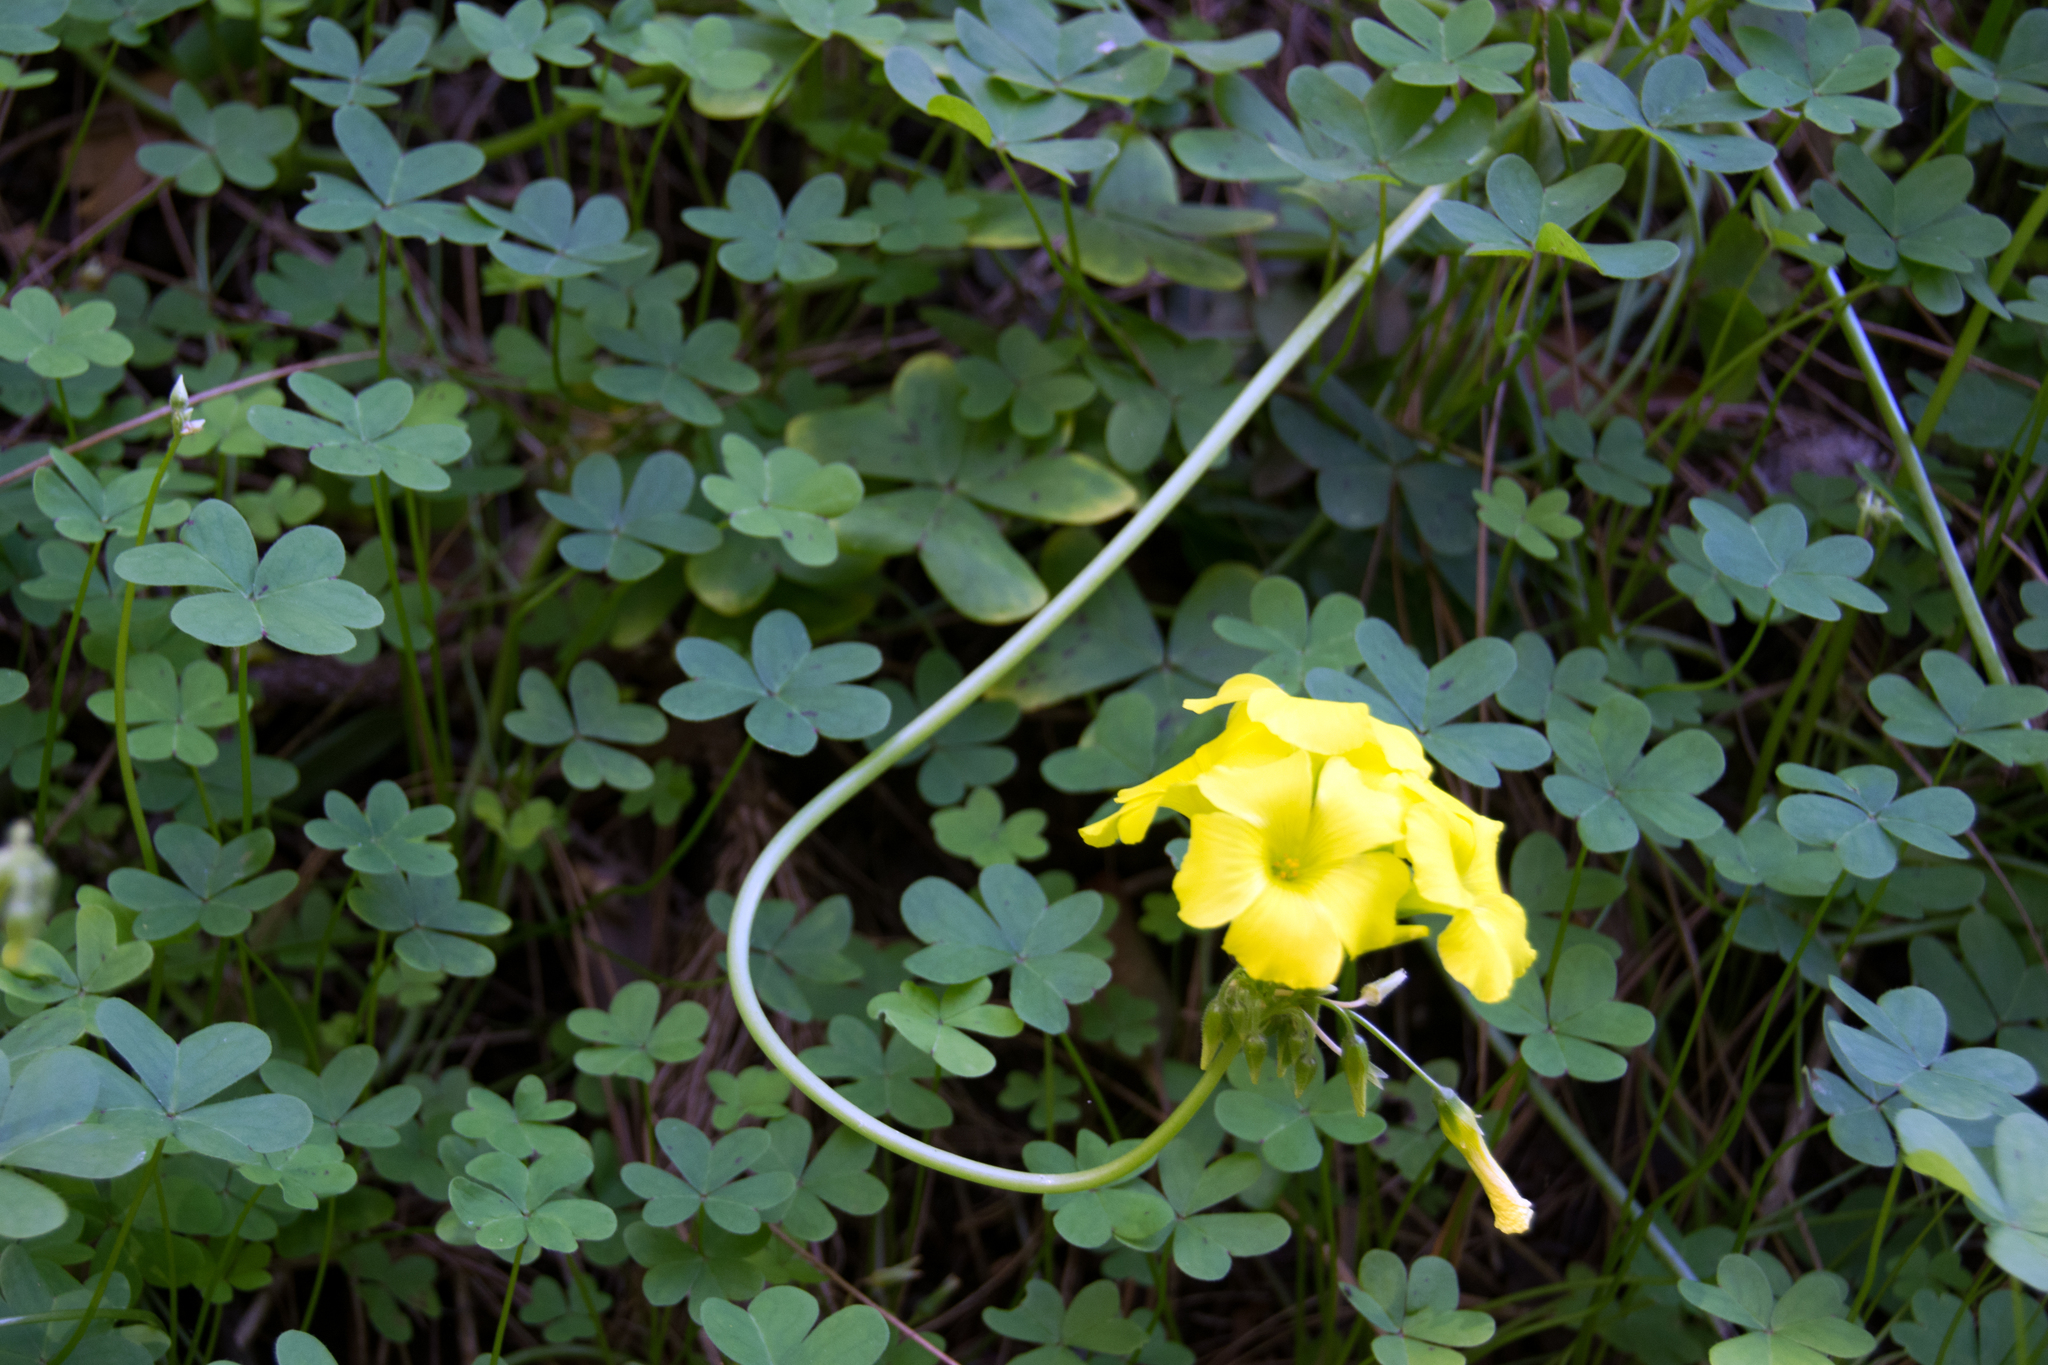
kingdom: Plantae
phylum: Tracheophyta
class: Magnoliopsida
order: Oxalidales
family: Oxalidaceae
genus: Oxalis
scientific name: Oxalis pes-caprae
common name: Bermuda-buttercup
